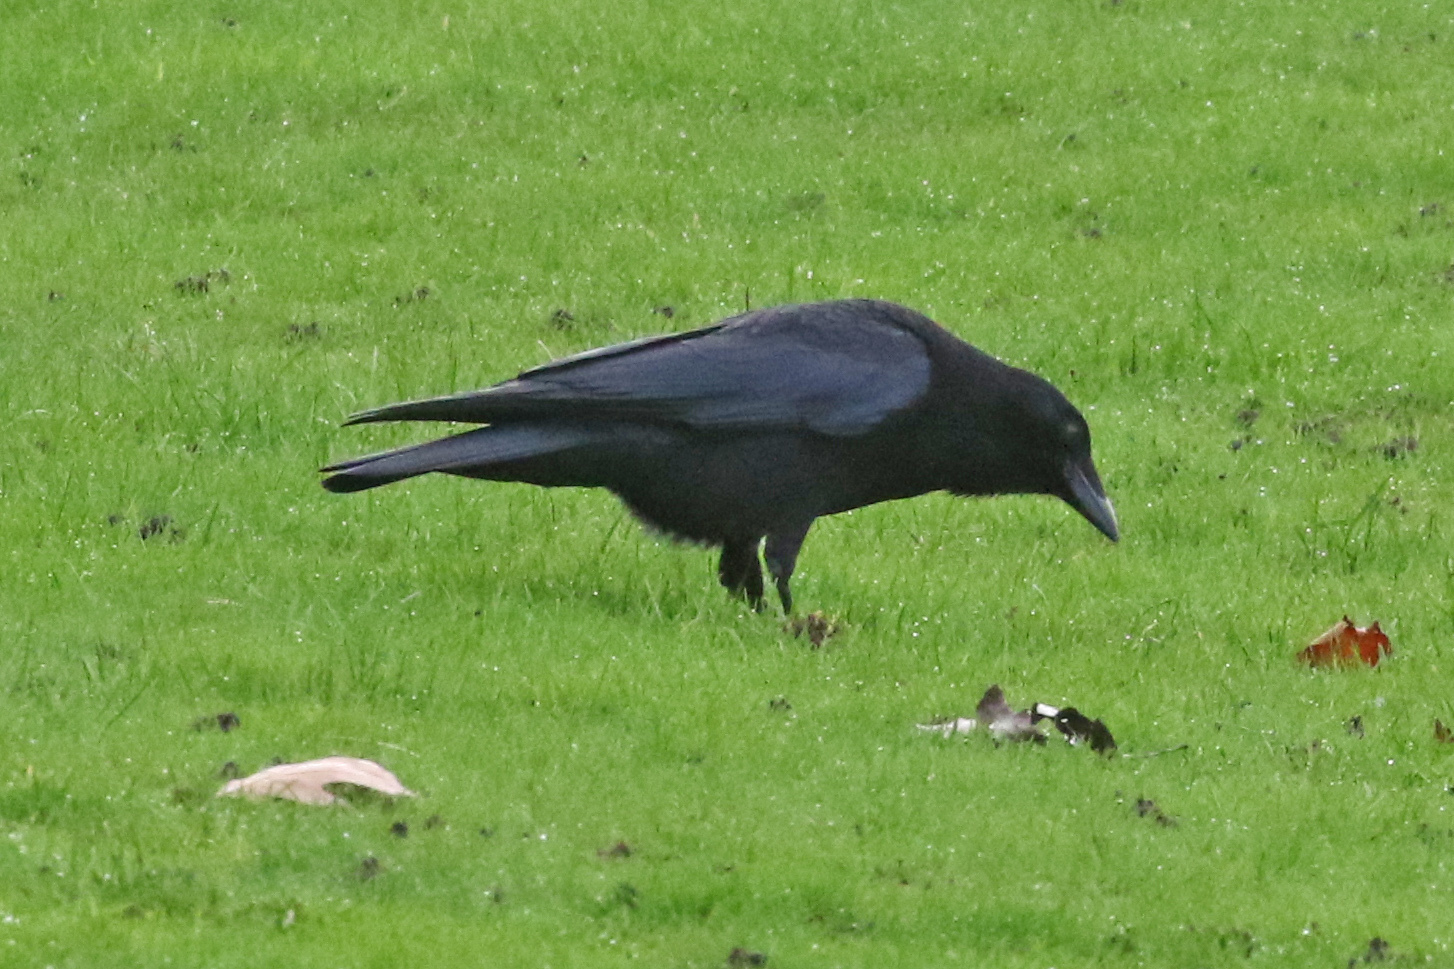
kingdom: Animalia
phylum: Chordata
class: Aves
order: Passeriformes
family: Corvidae
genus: Corvus
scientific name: Corvus corone
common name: Carrion crow
